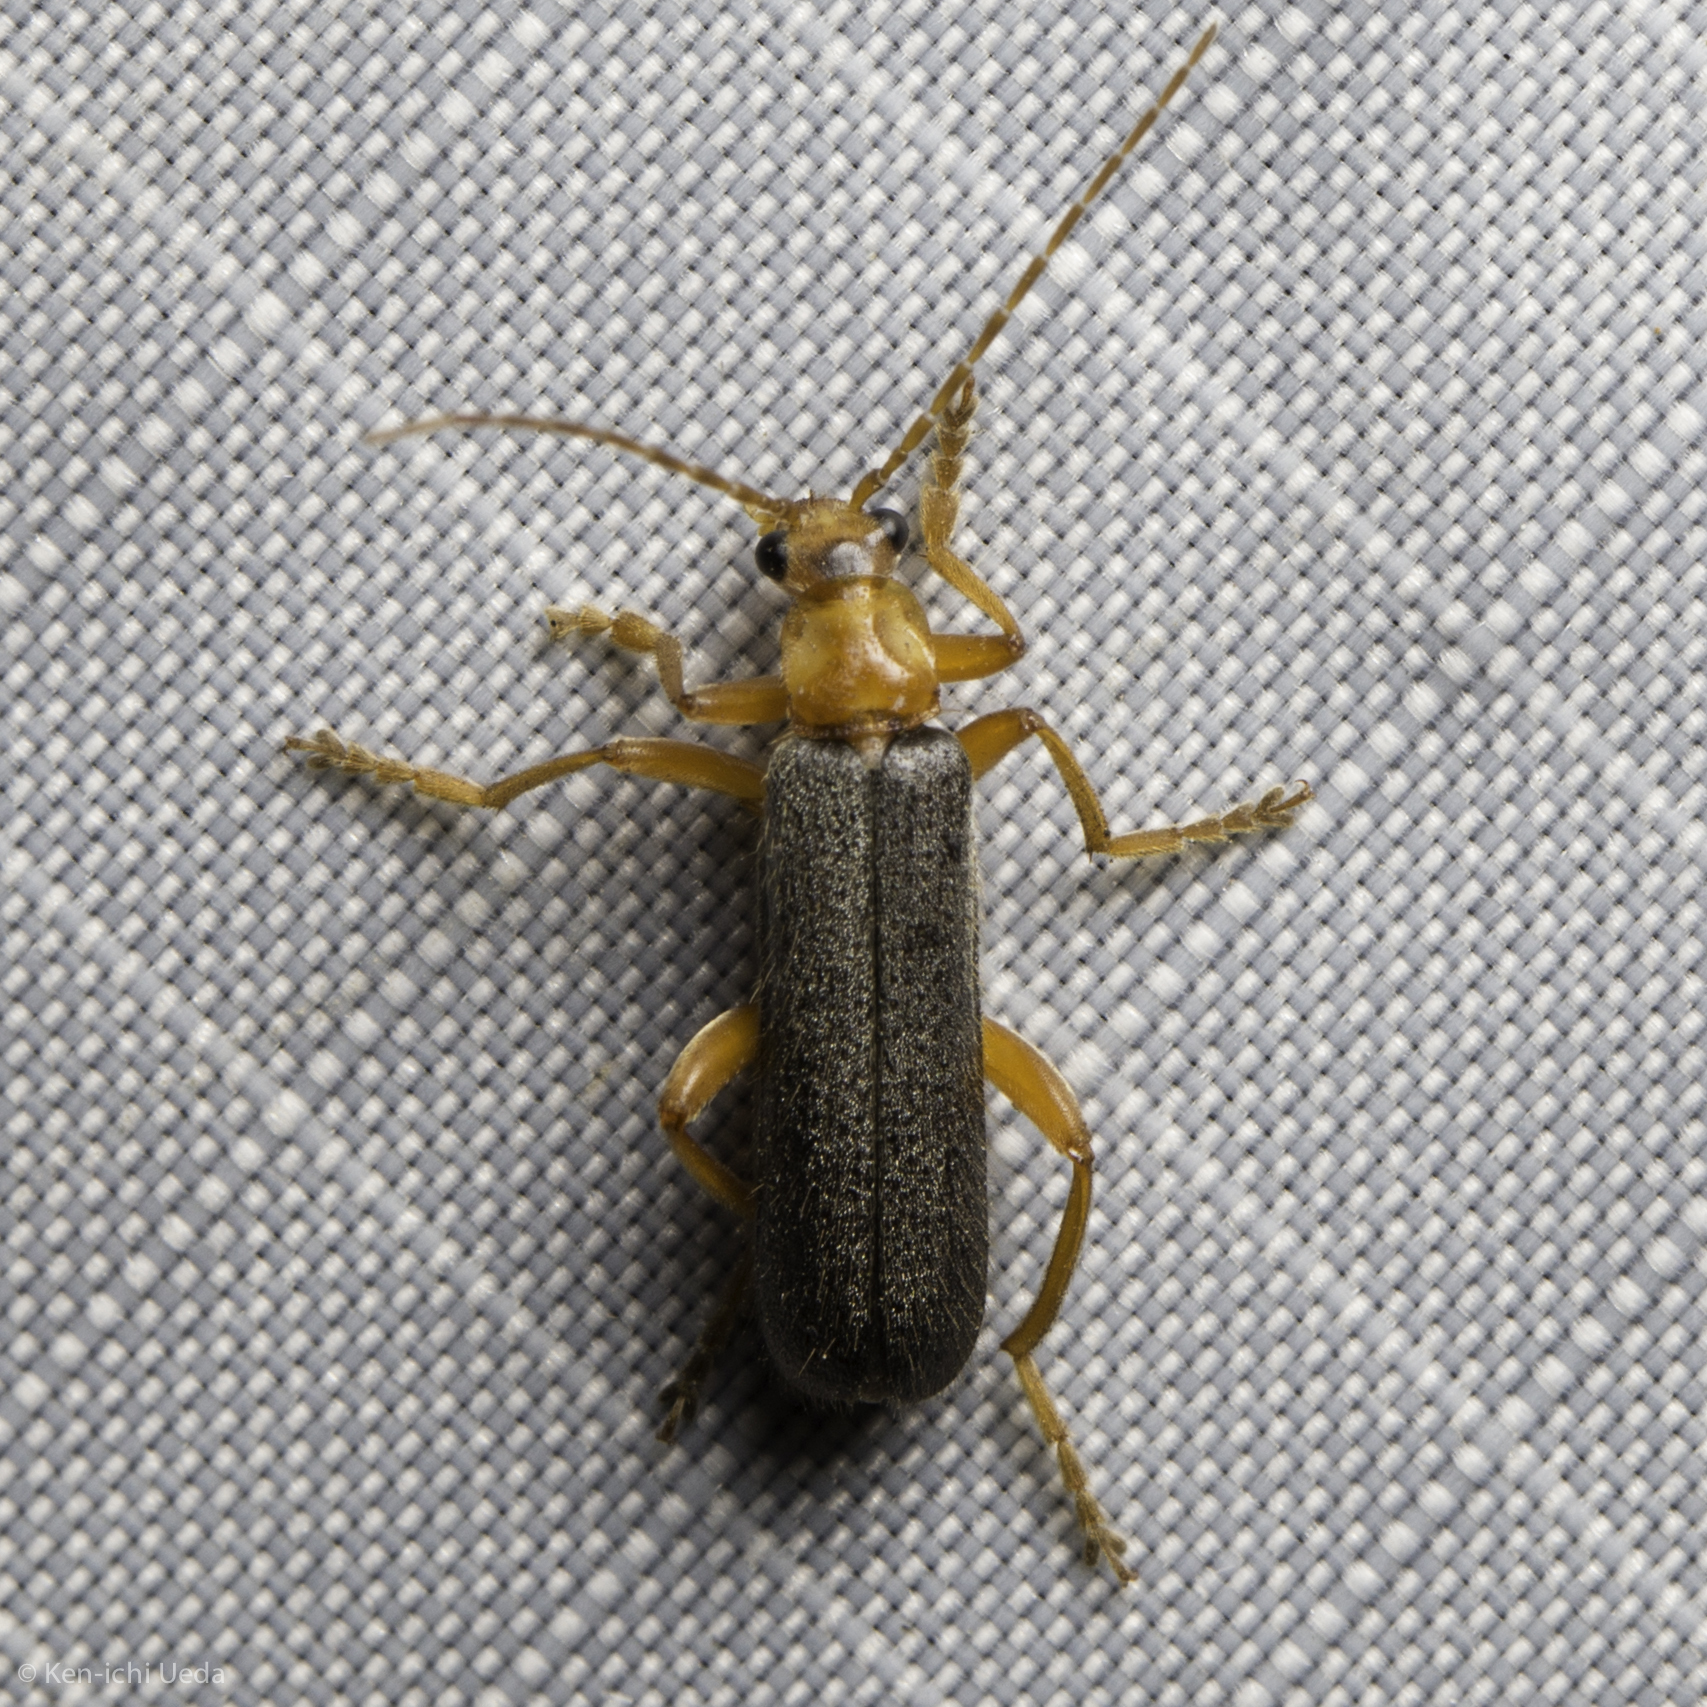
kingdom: Animalia
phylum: Arthropoda
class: Insecta
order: Coleoptera
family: Cantharidae
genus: Cultellunguis
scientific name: Cultellunguis perpallens
